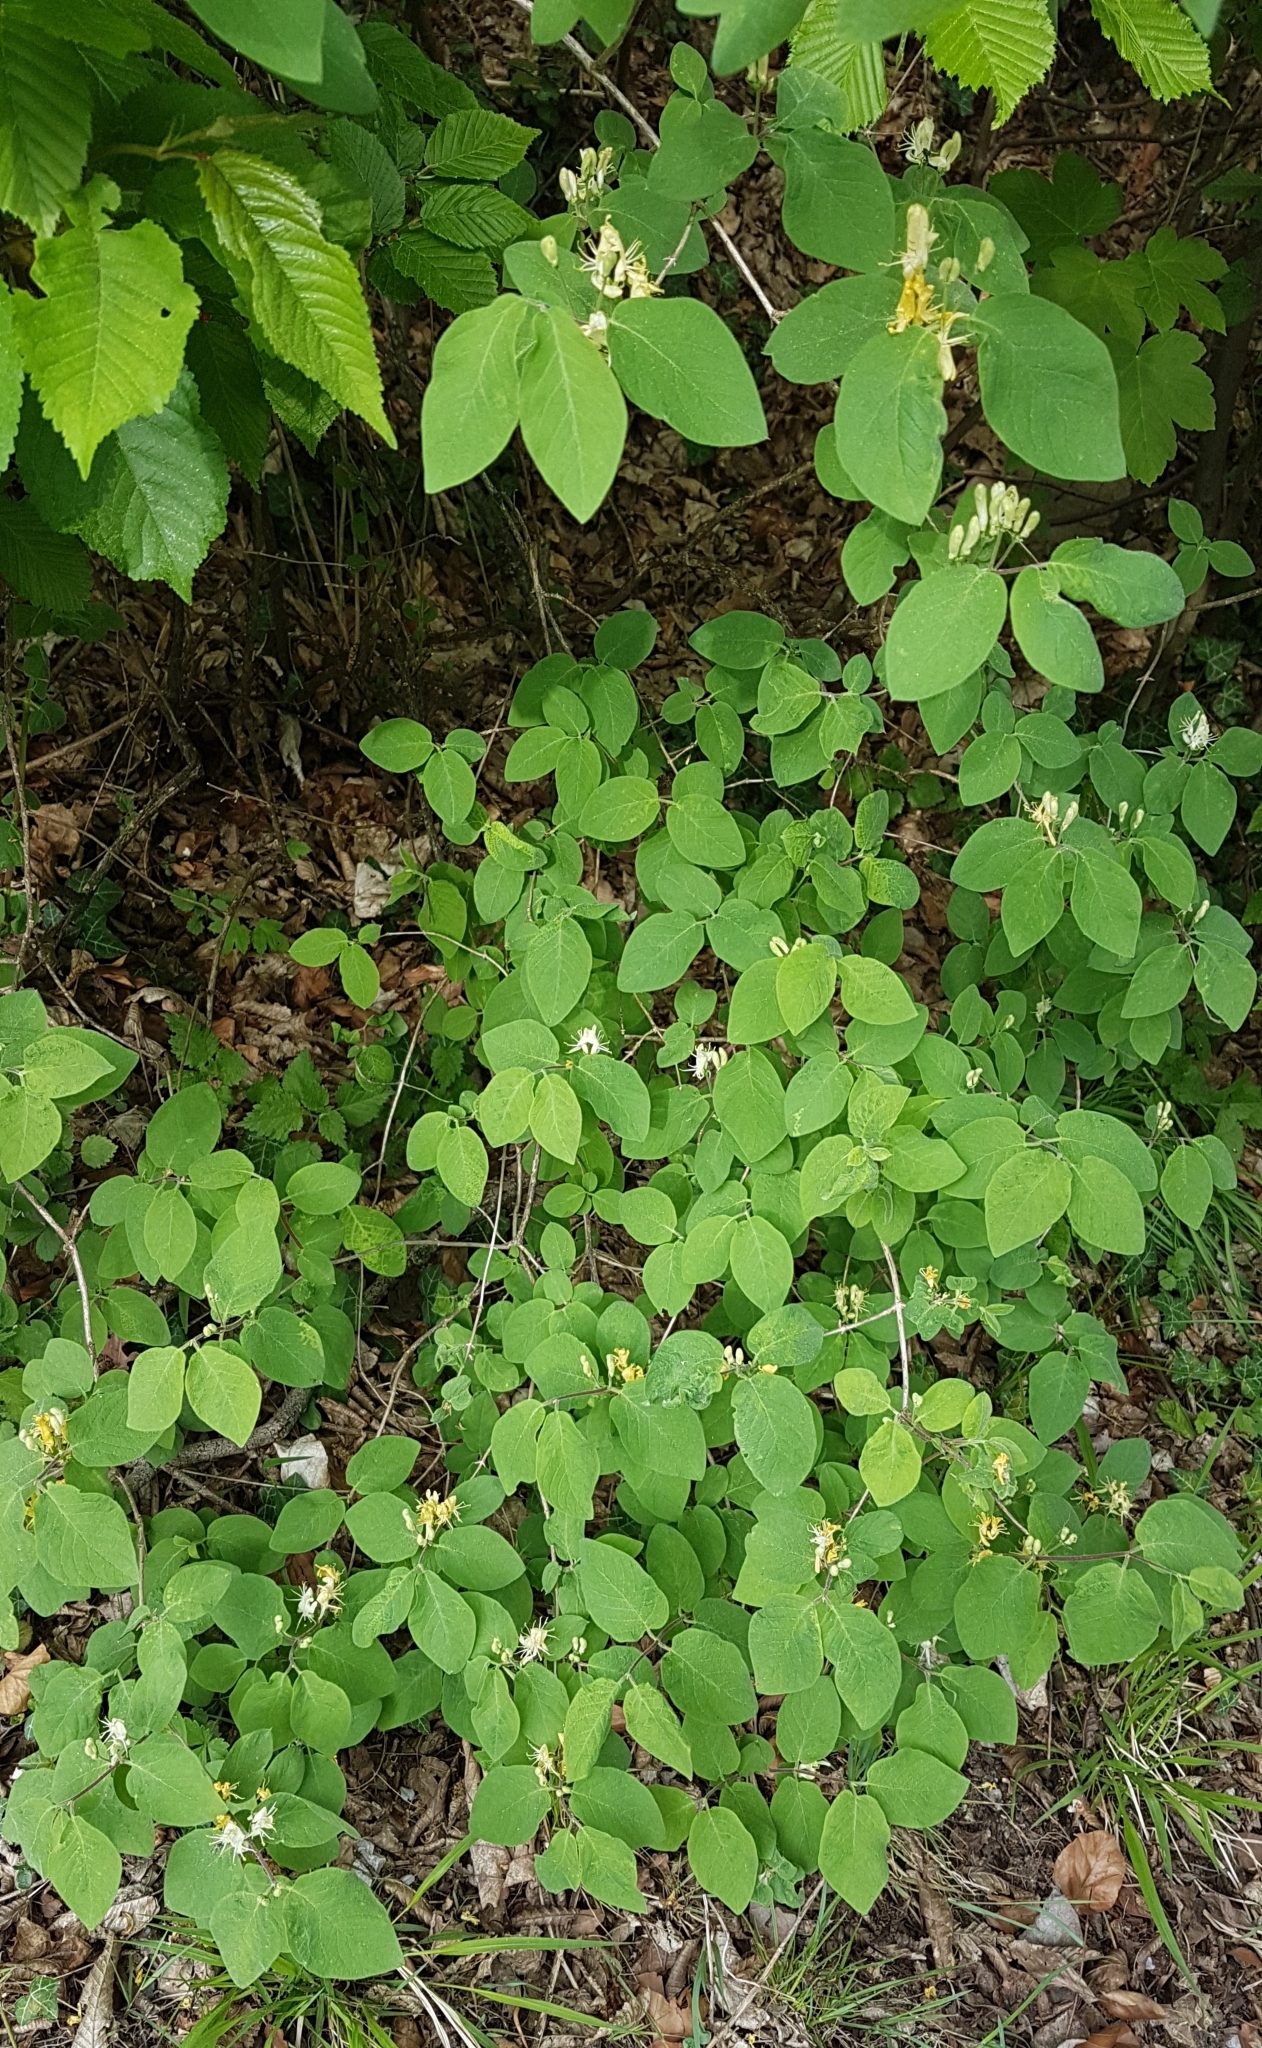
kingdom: Plantae
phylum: Tracheophyta
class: Magnoliopsida
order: Dipsacales
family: Caprifoliaceae
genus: Lonicera
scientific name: Lonicera xylosteum
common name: Fly honeysuckle
